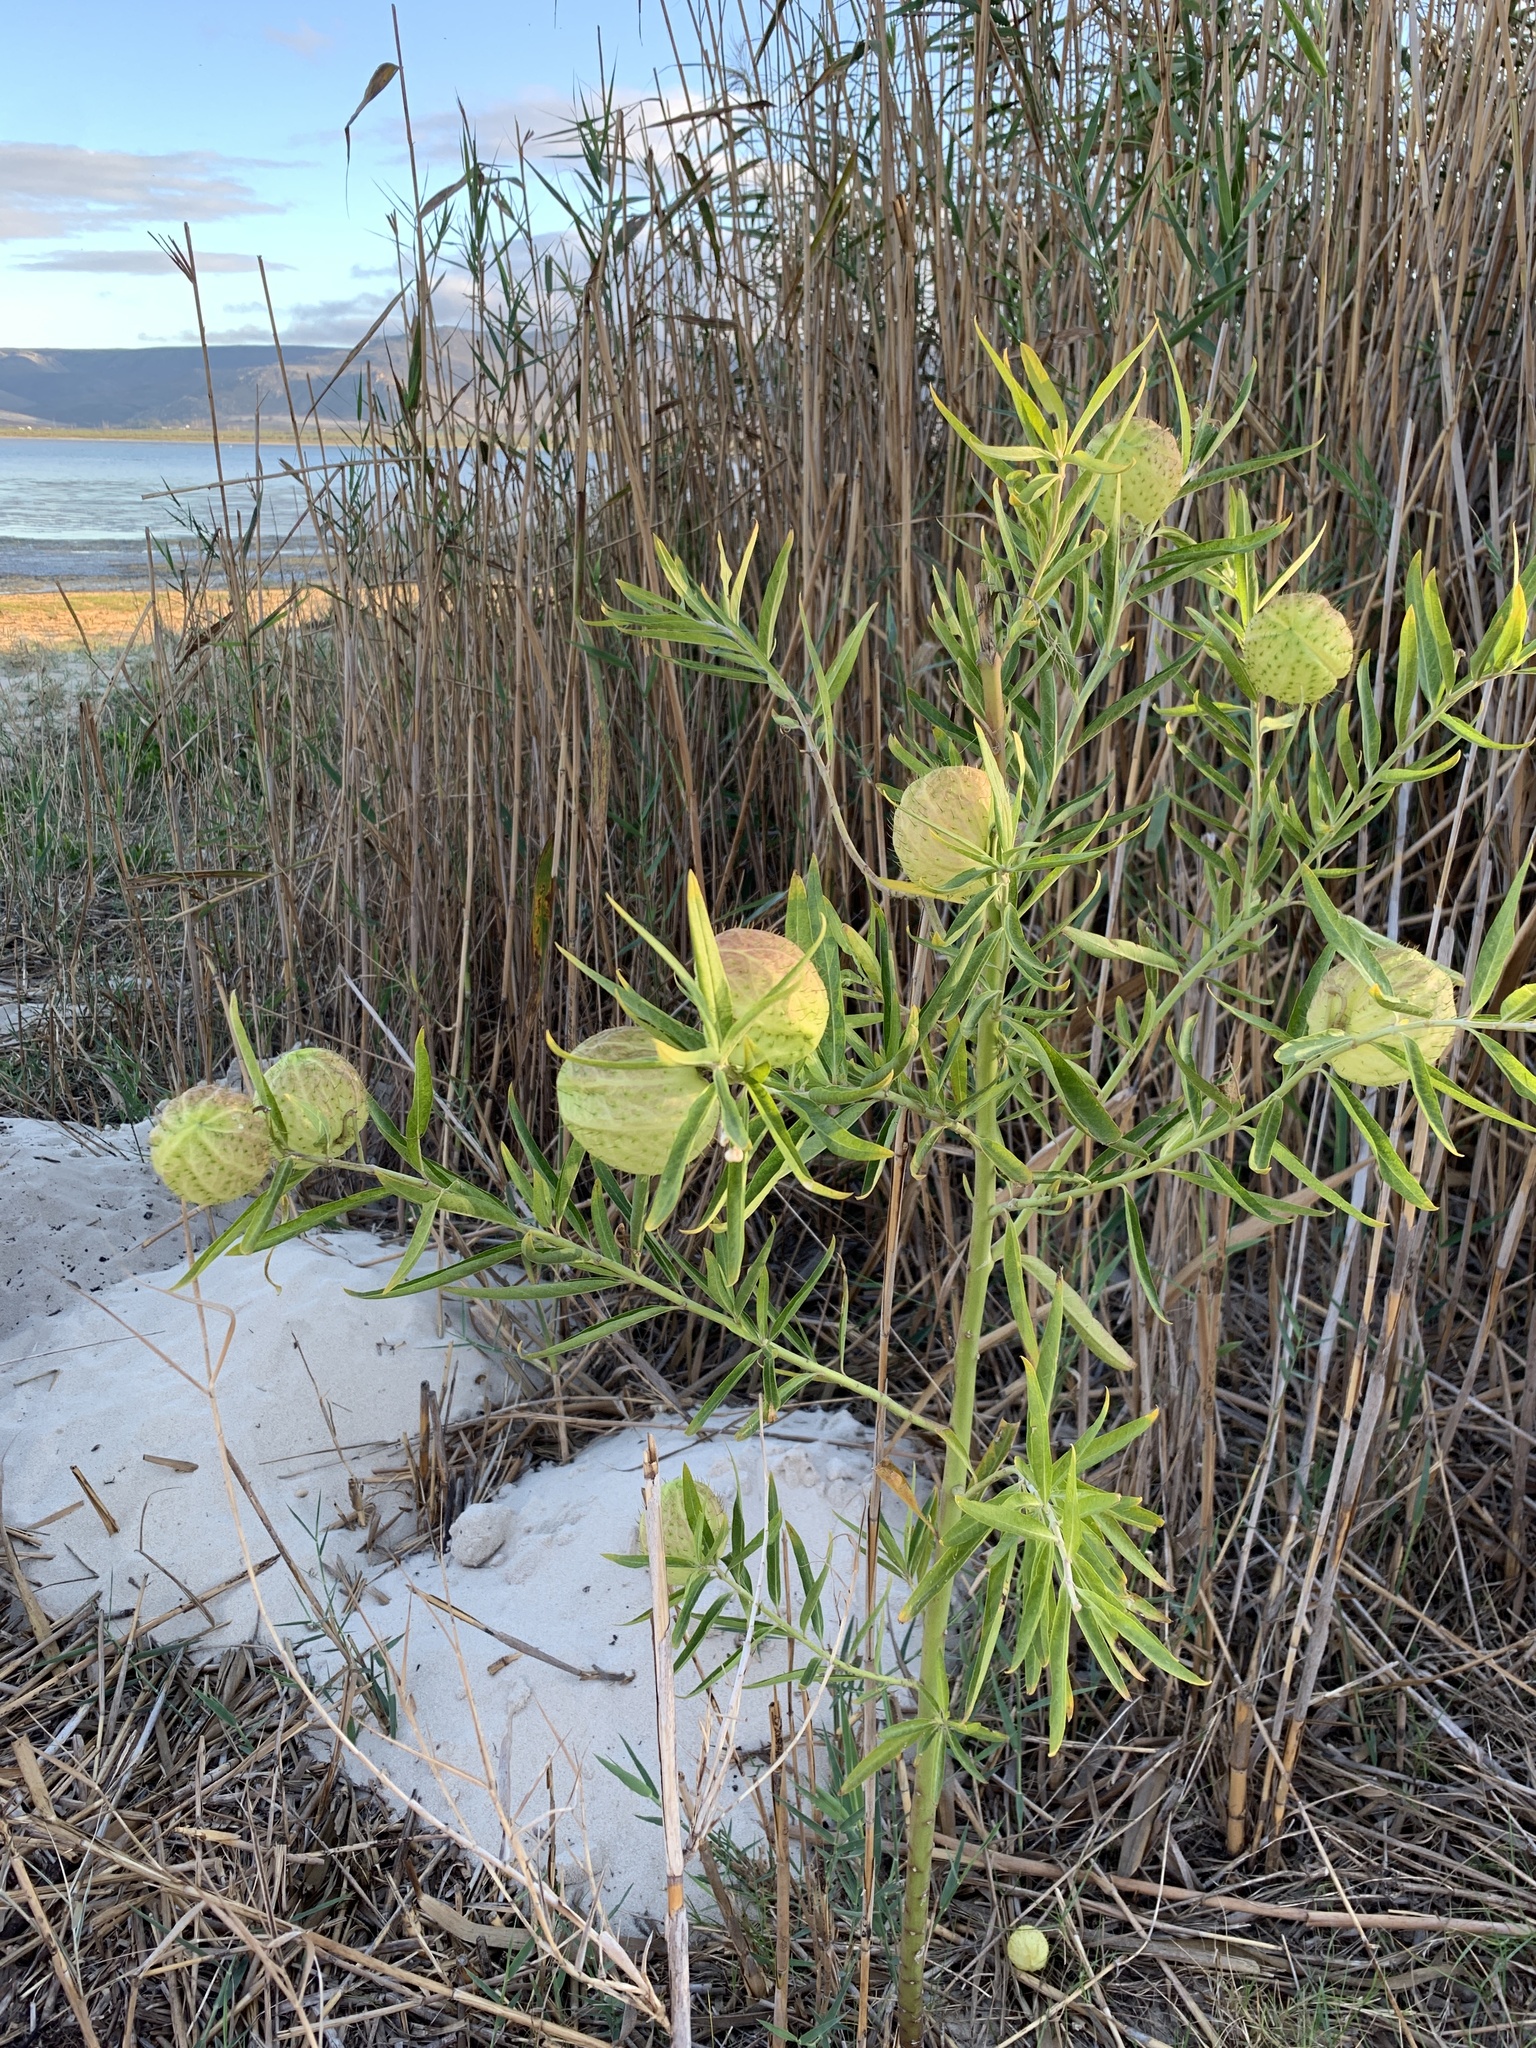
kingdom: Plantae
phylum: Tracheophyta
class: Magnoliopsida
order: Gentianales
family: Apocynaceae
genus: Gomphocarpus
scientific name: Gomphocarpus physocarpus
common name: Balloon cotton bush
